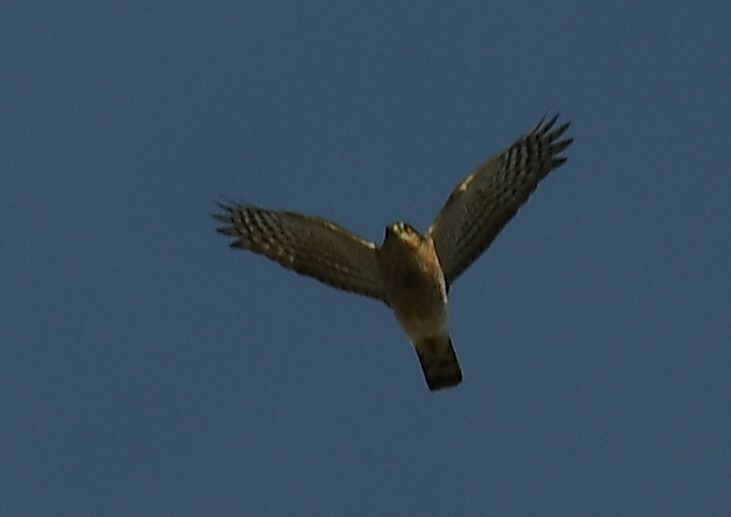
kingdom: Animalia
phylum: Chordata
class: Aves
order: Accipitriformes
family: Accipitridae
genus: Accipiter
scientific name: Accipiter striatus
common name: Sharp-shinned hawk
